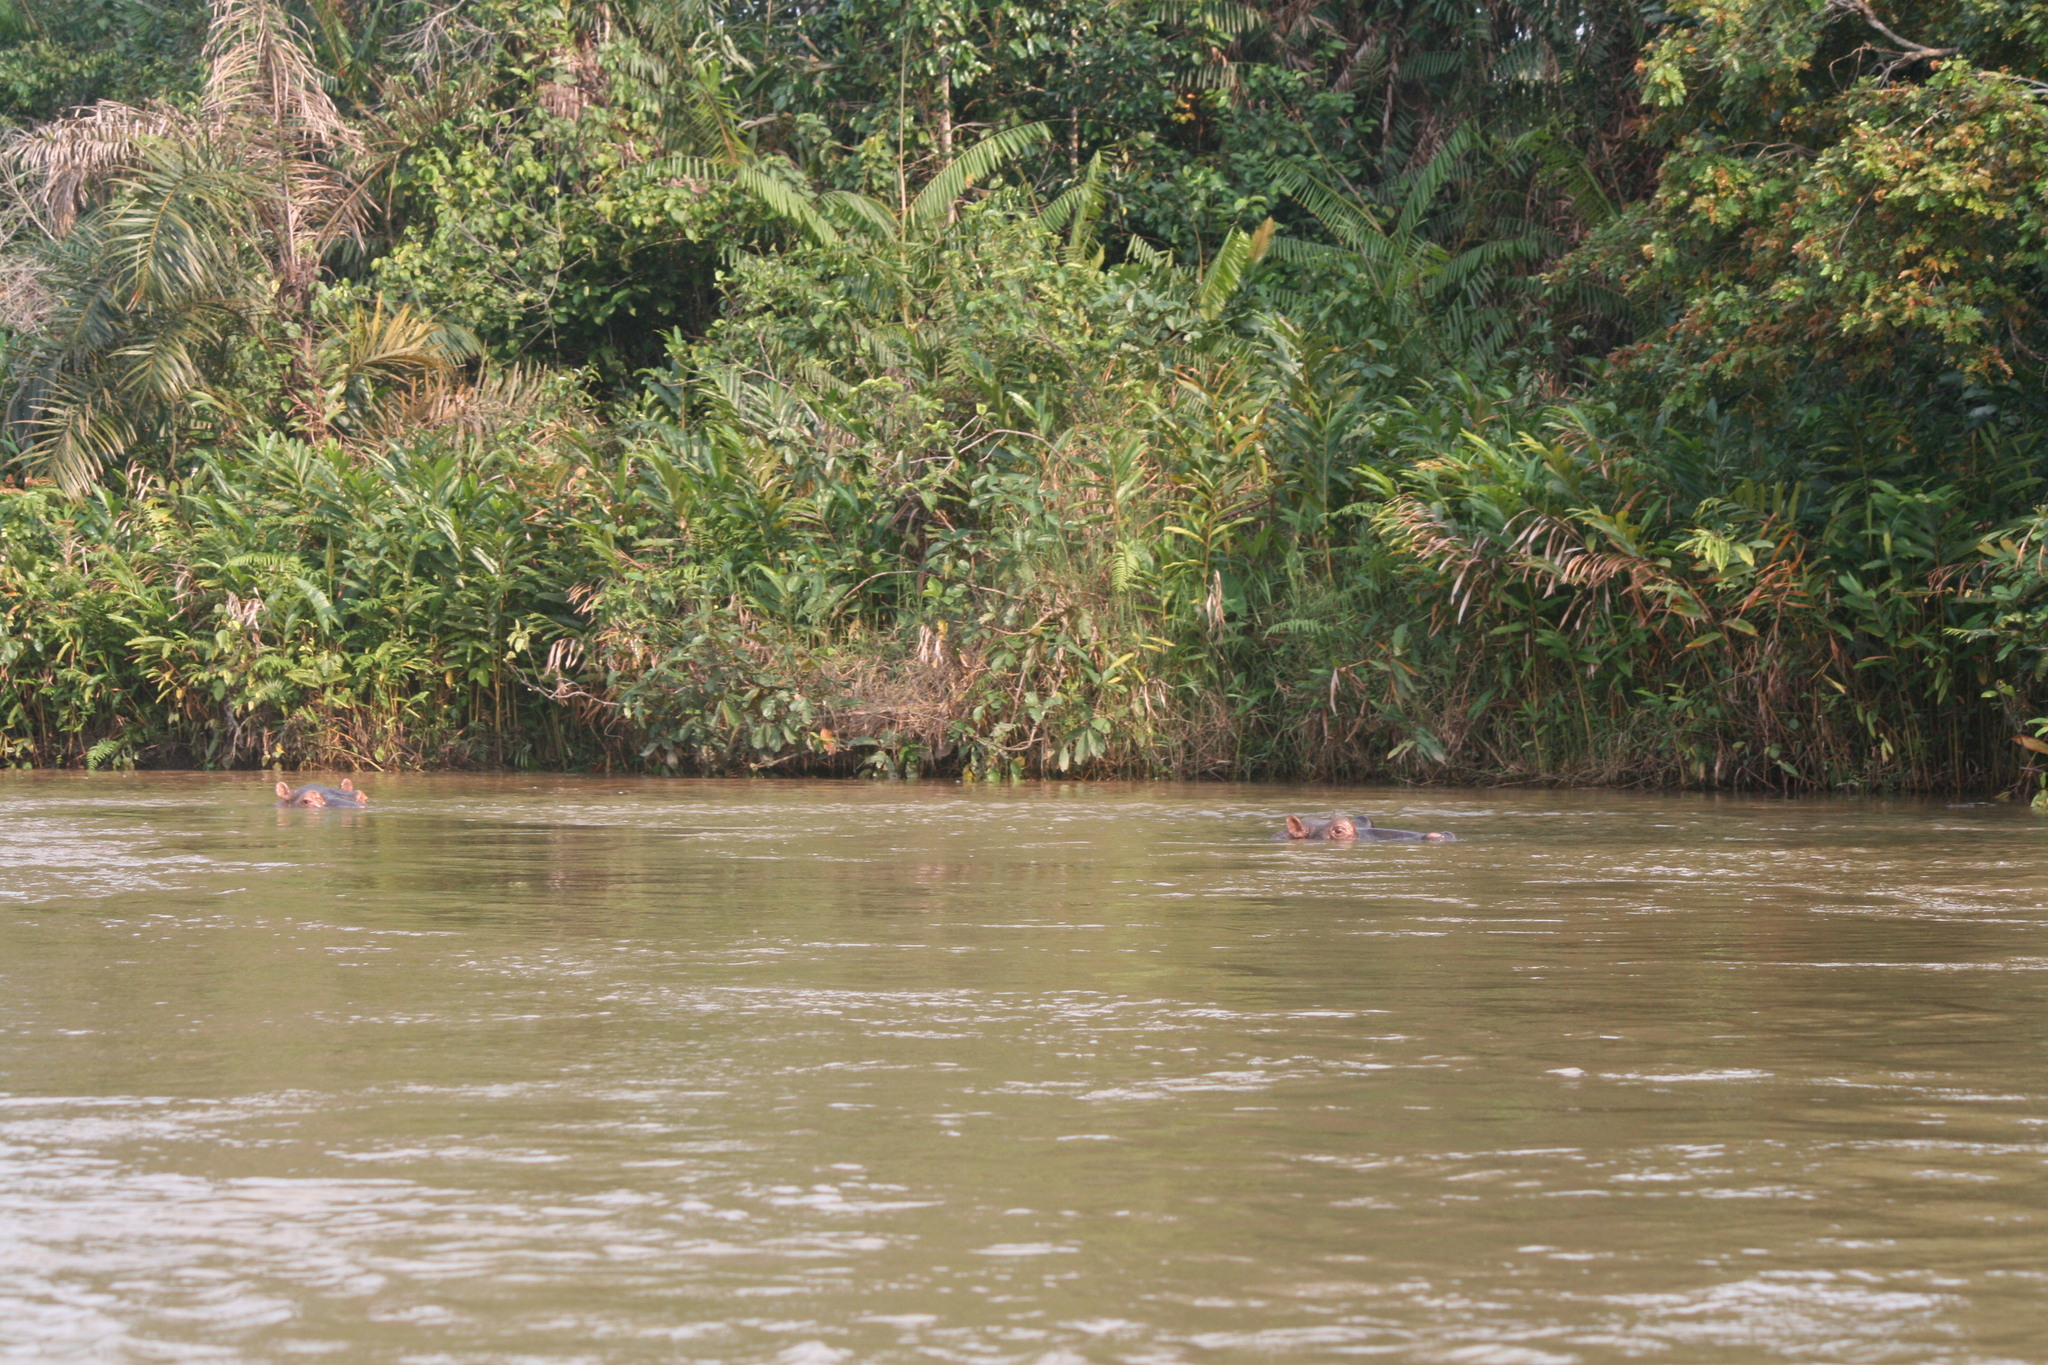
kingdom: Animalia
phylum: Chordata
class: Mammalia
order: Artiodactyla
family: Hippopotamidae
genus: Hippopotamus
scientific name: Hippopotamus amphibius
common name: Common hippopotamus
